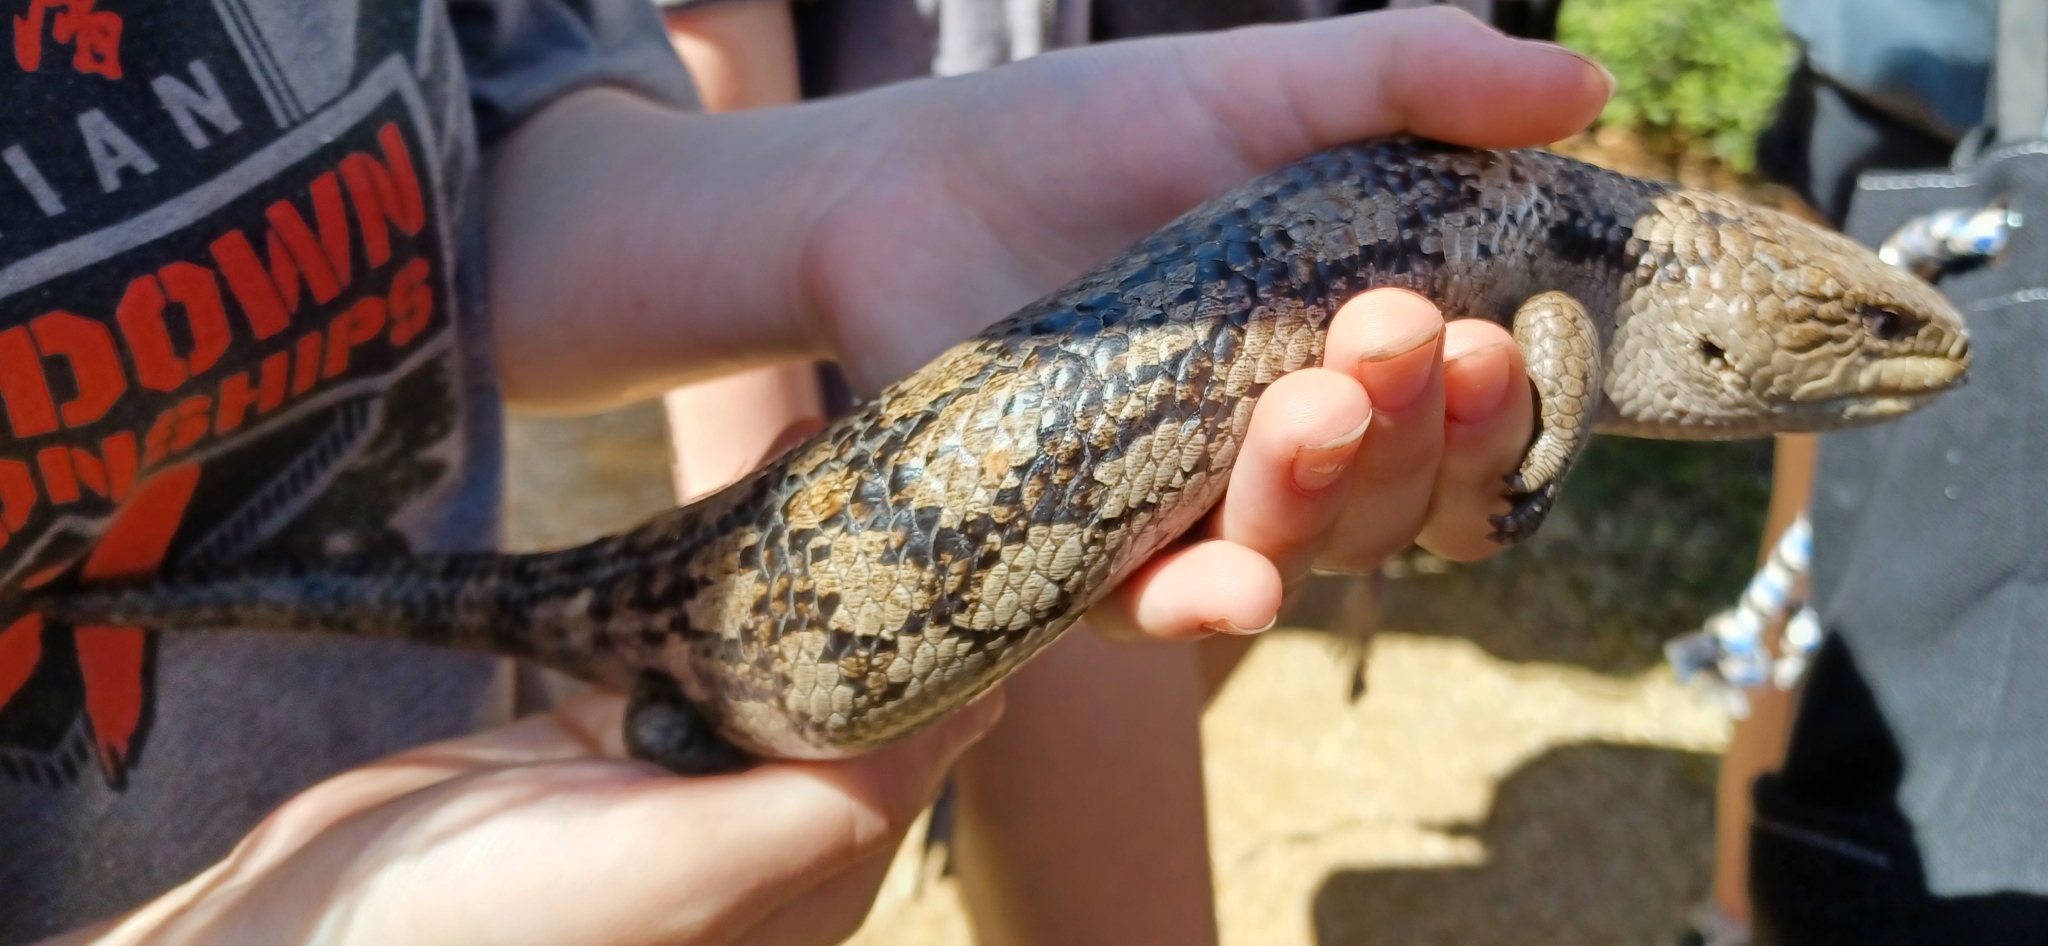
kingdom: Animalia
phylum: Chordata
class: Squamata
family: Scincidae
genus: Tiliqua
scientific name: Tiliqua nigrolutea
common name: Blotched blue-tongued lizard
